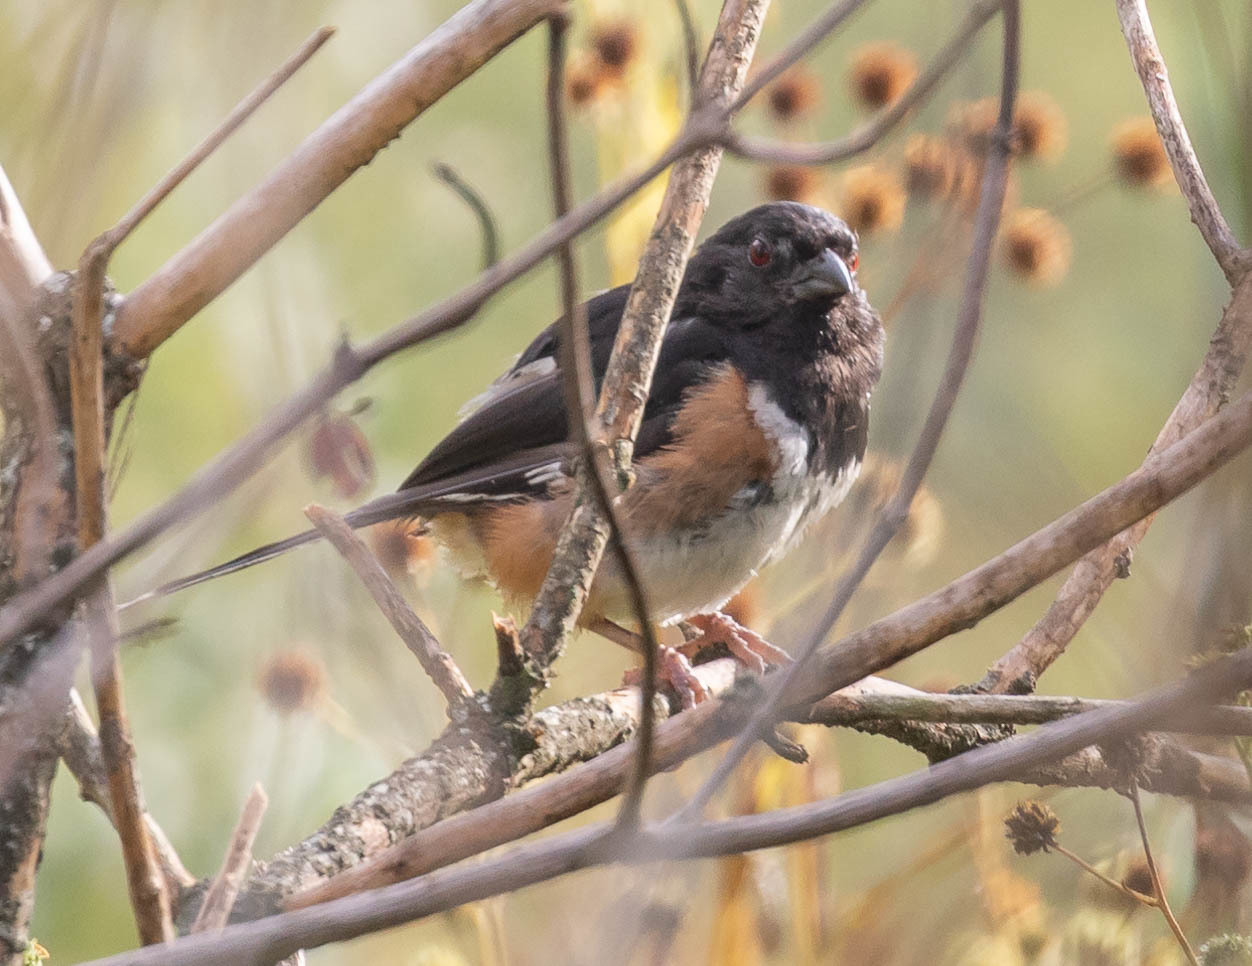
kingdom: Animalia
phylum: Chordata
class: Aves
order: Passeriformes
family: Passerellidae
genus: Pipilo
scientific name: Pipilo erythrophthalmus
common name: Eastern towhee
